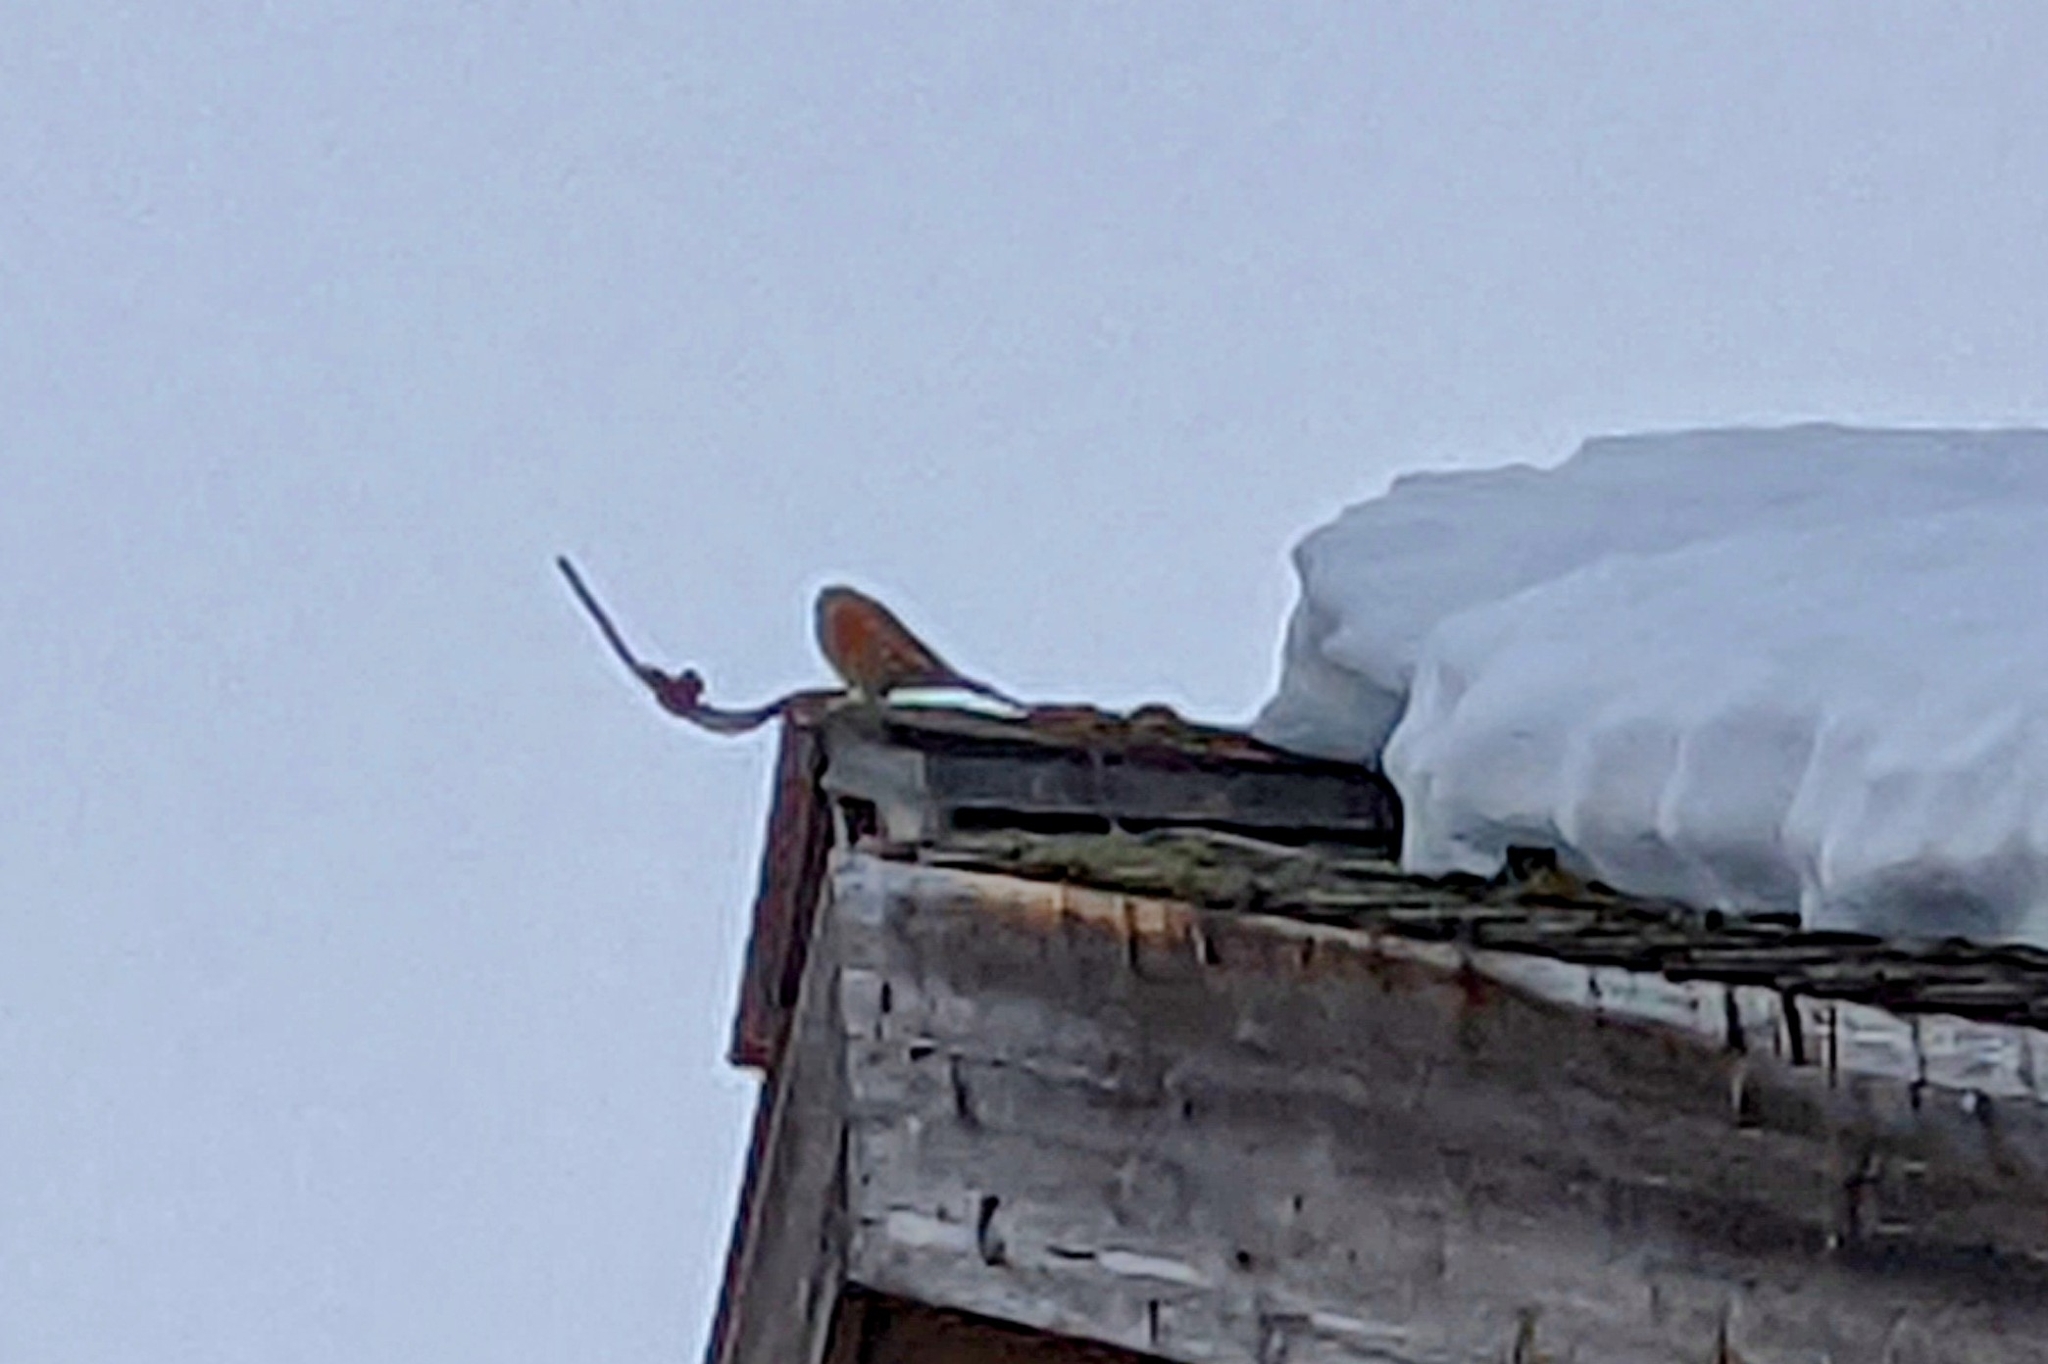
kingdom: Animalia
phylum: Chordata
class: Aves
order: Passeriformes
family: Prunellidae
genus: Prunella
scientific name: Prunella collaris
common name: Alpine accentor
